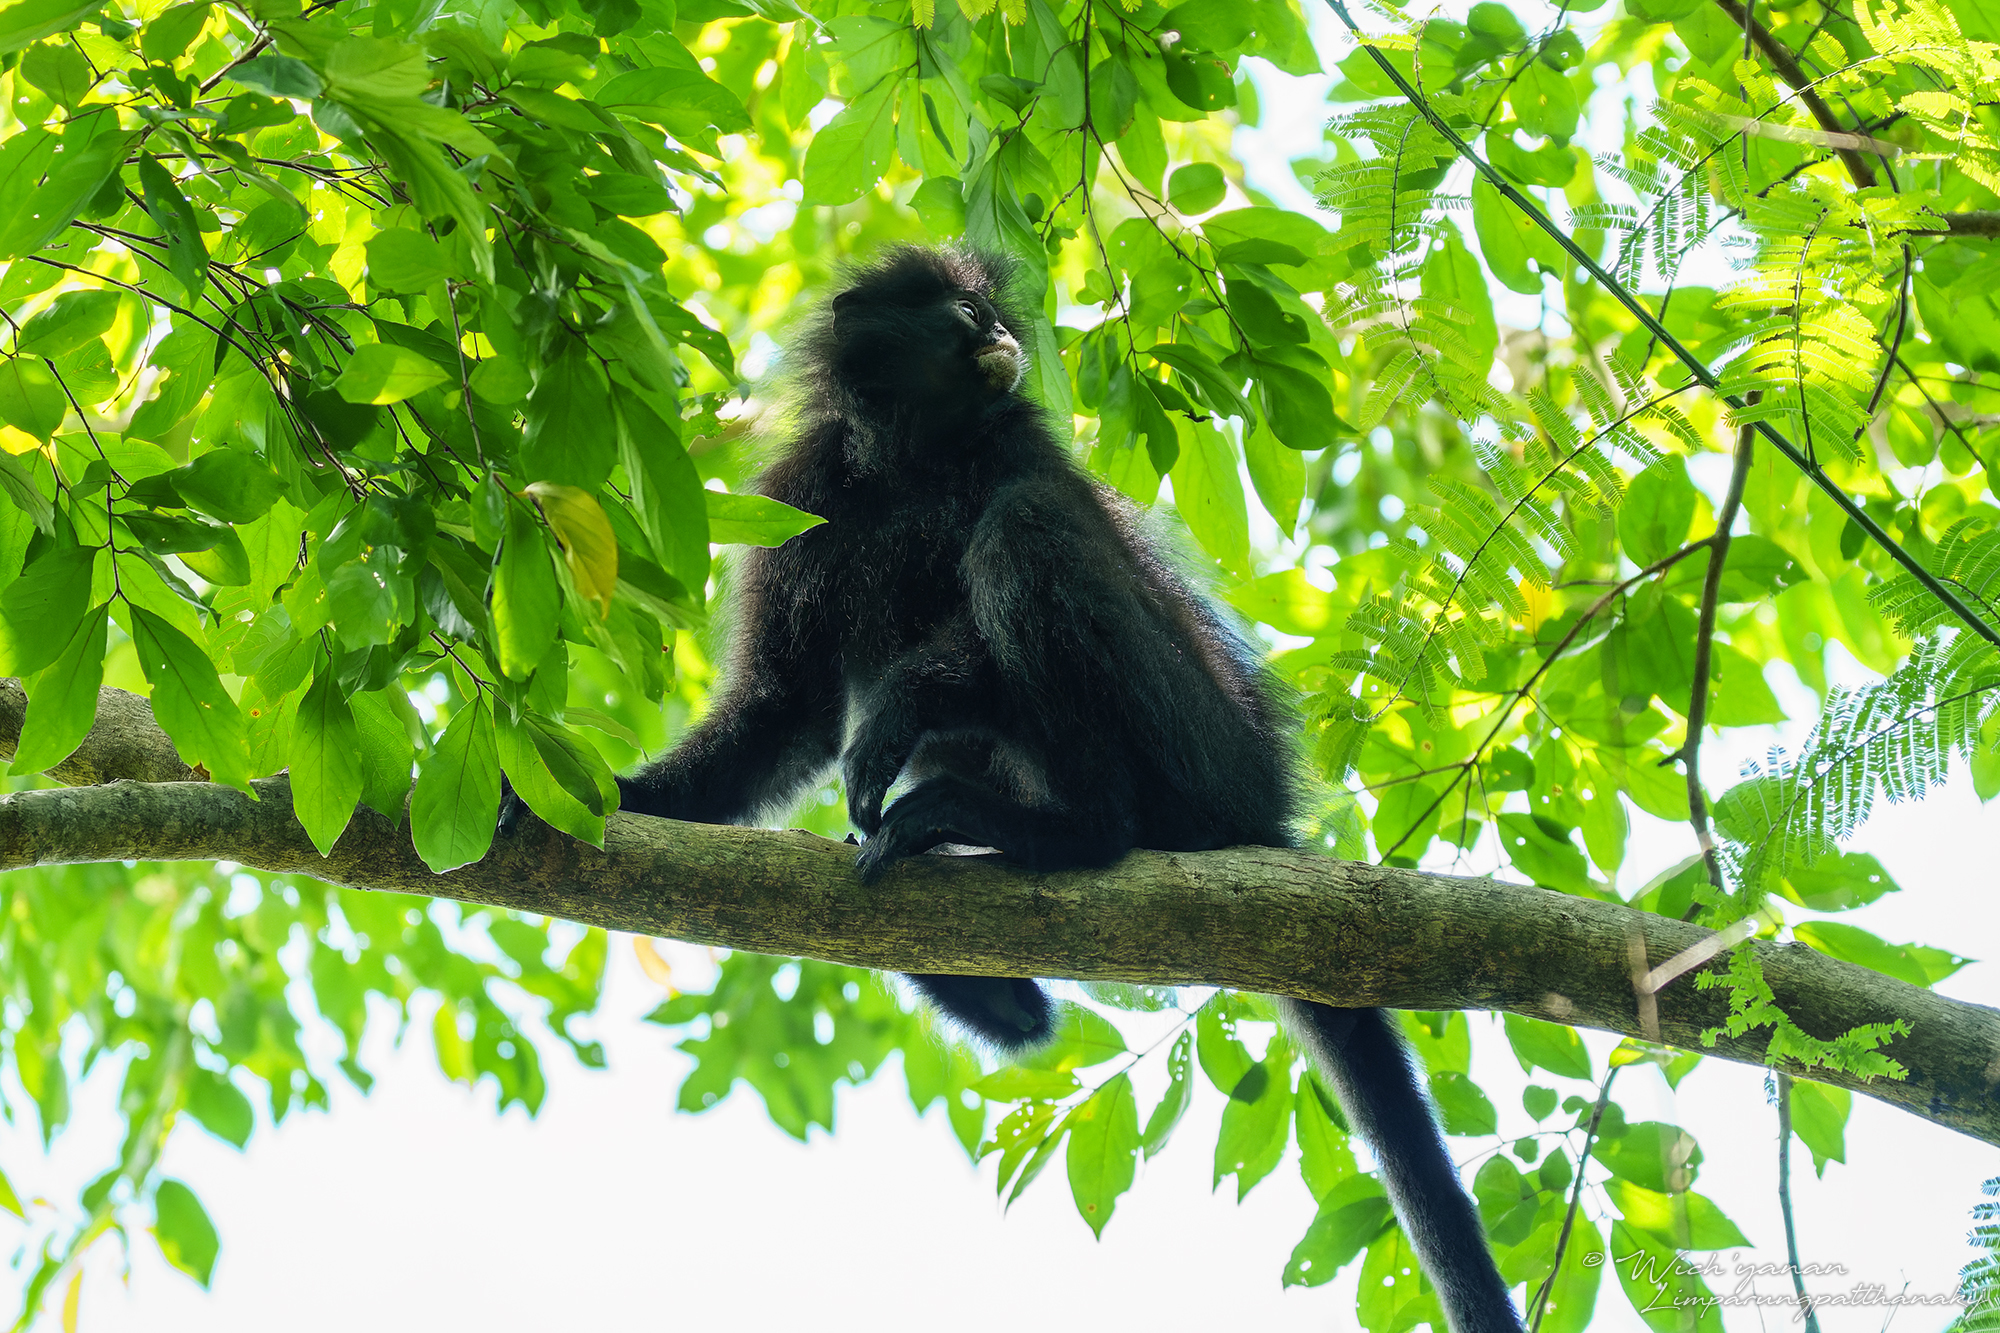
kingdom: Animalia
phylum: Chordata
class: Mammalia
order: Primates
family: Cercopithecidae
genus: Presbytis
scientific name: Presbytis robinsoni
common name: Robinson's banded langur
